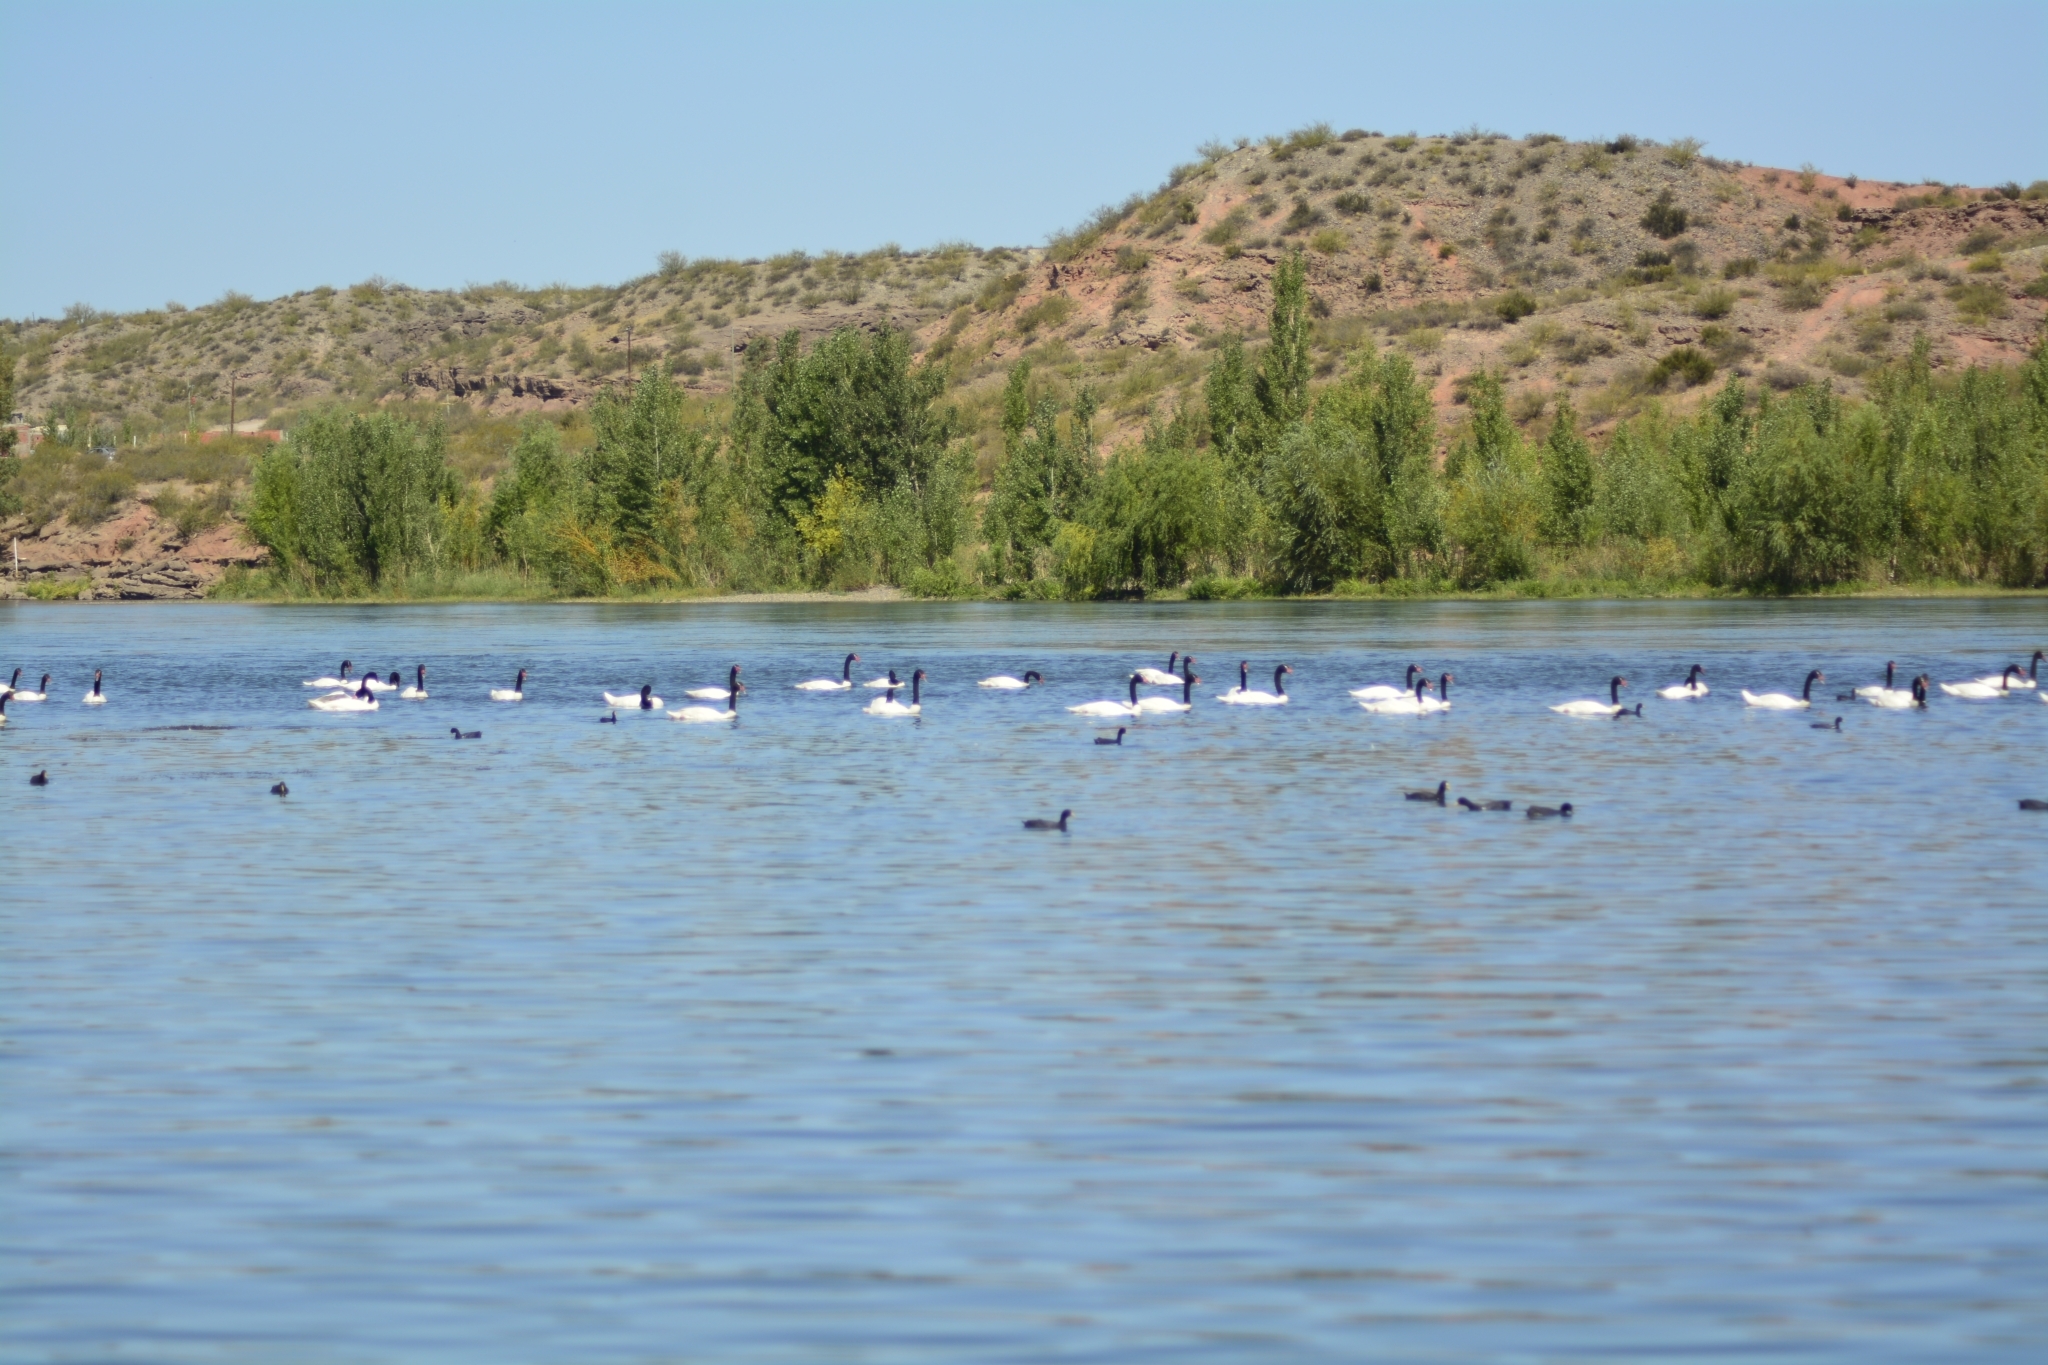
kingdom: Animalia
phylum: Chordata
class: Aves
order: Anseriformes
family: Anatidae
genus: Cygnus
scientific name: Cygnus melancoryphus
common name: Black-necked swan
